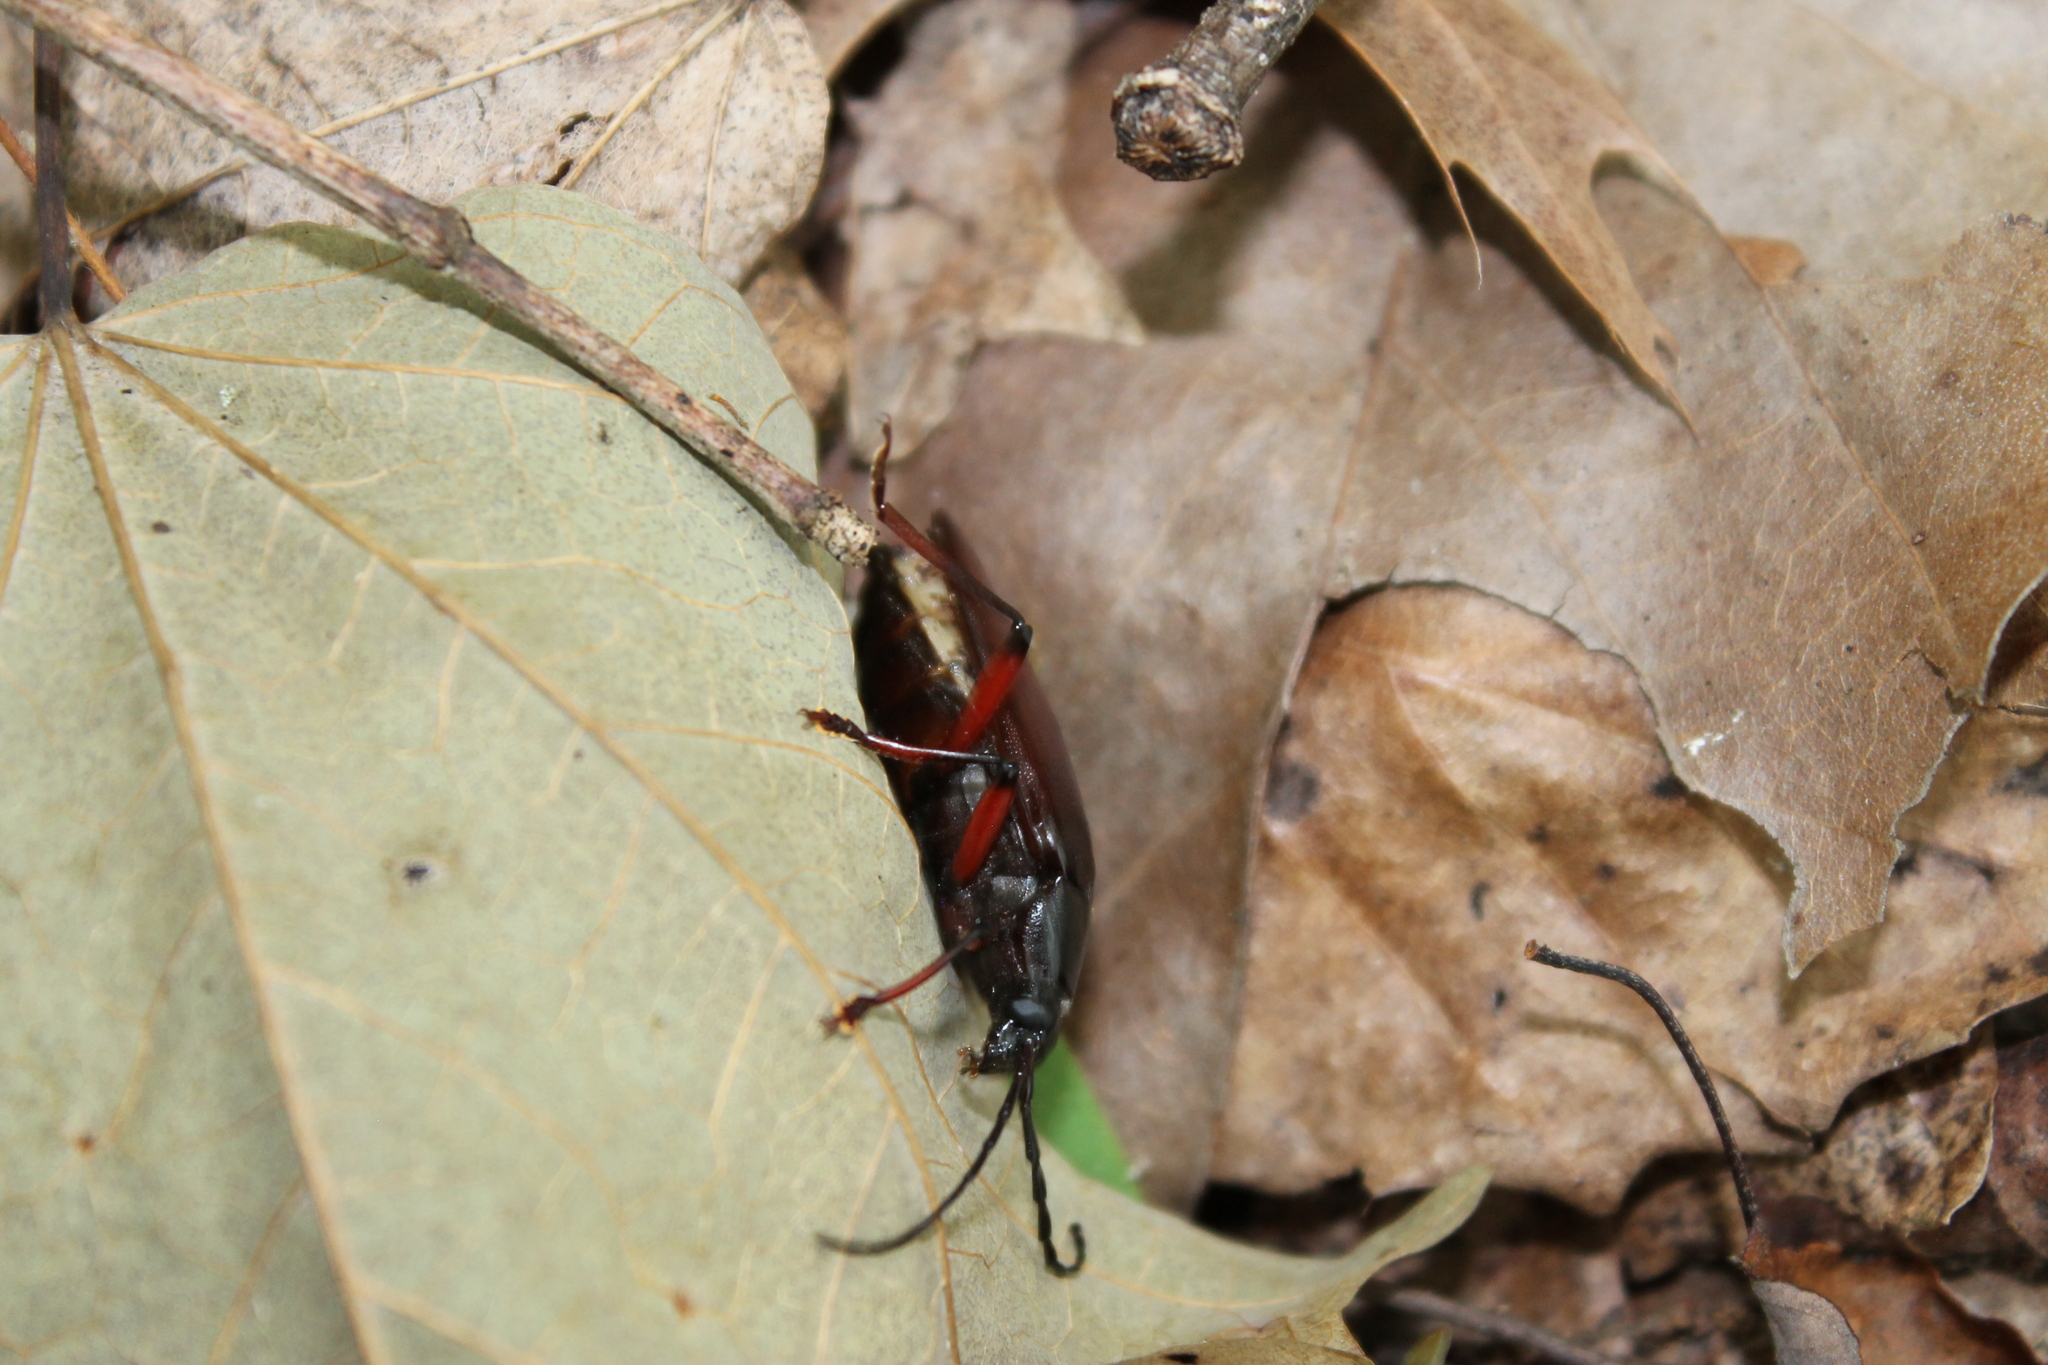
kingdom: Animalia
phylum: Arthropoda
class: Insecta
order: Coleoptera
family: Cerambycidae
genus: Sphenostethus
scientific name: Sphenostethus taslei
